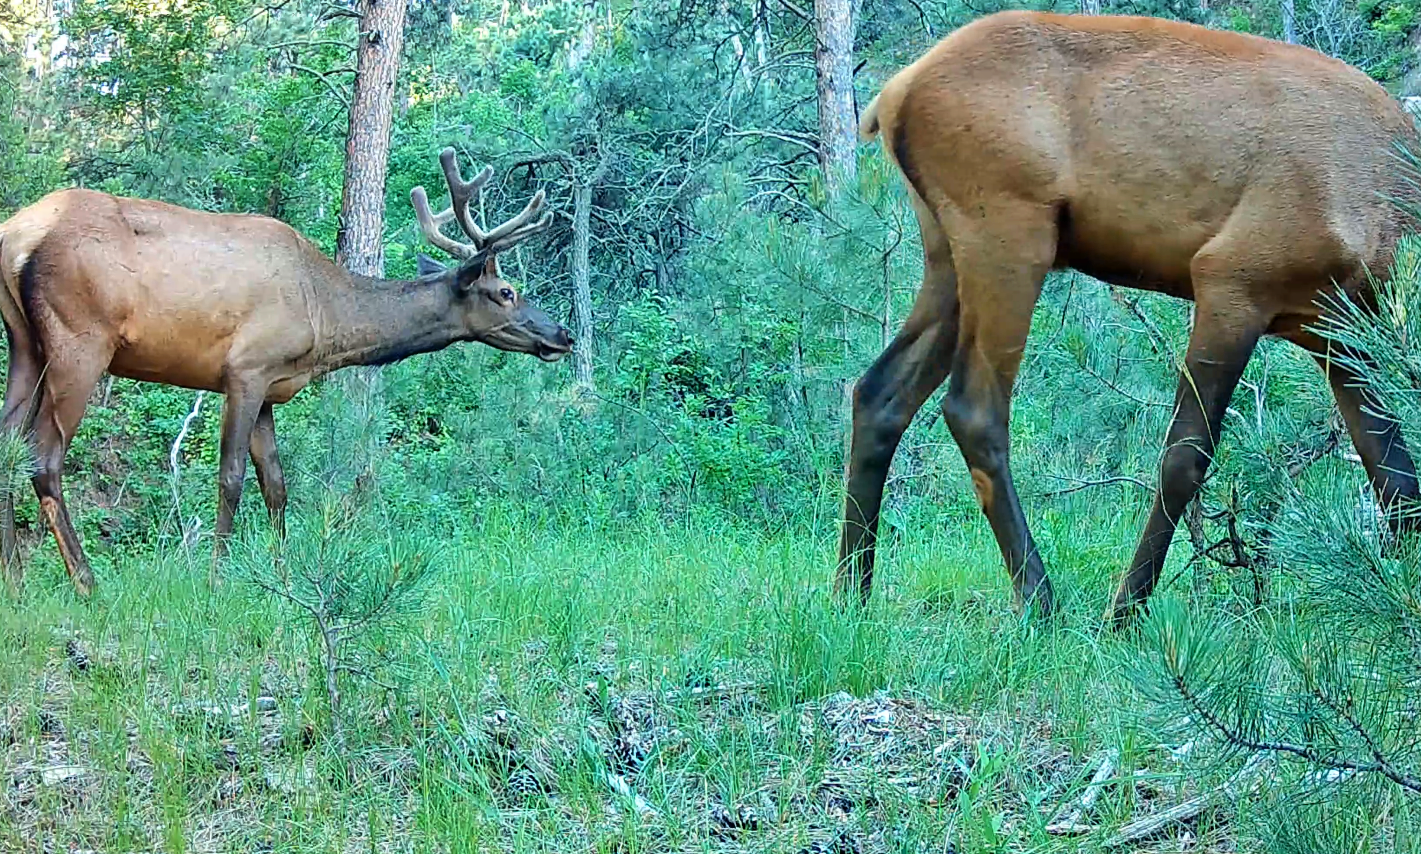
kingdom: Animalia
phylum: Chordata
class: Mammalia
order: Artiodactyla
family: Cervidae
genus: Cervus
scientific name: Cervus elaphus
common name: Red deer
